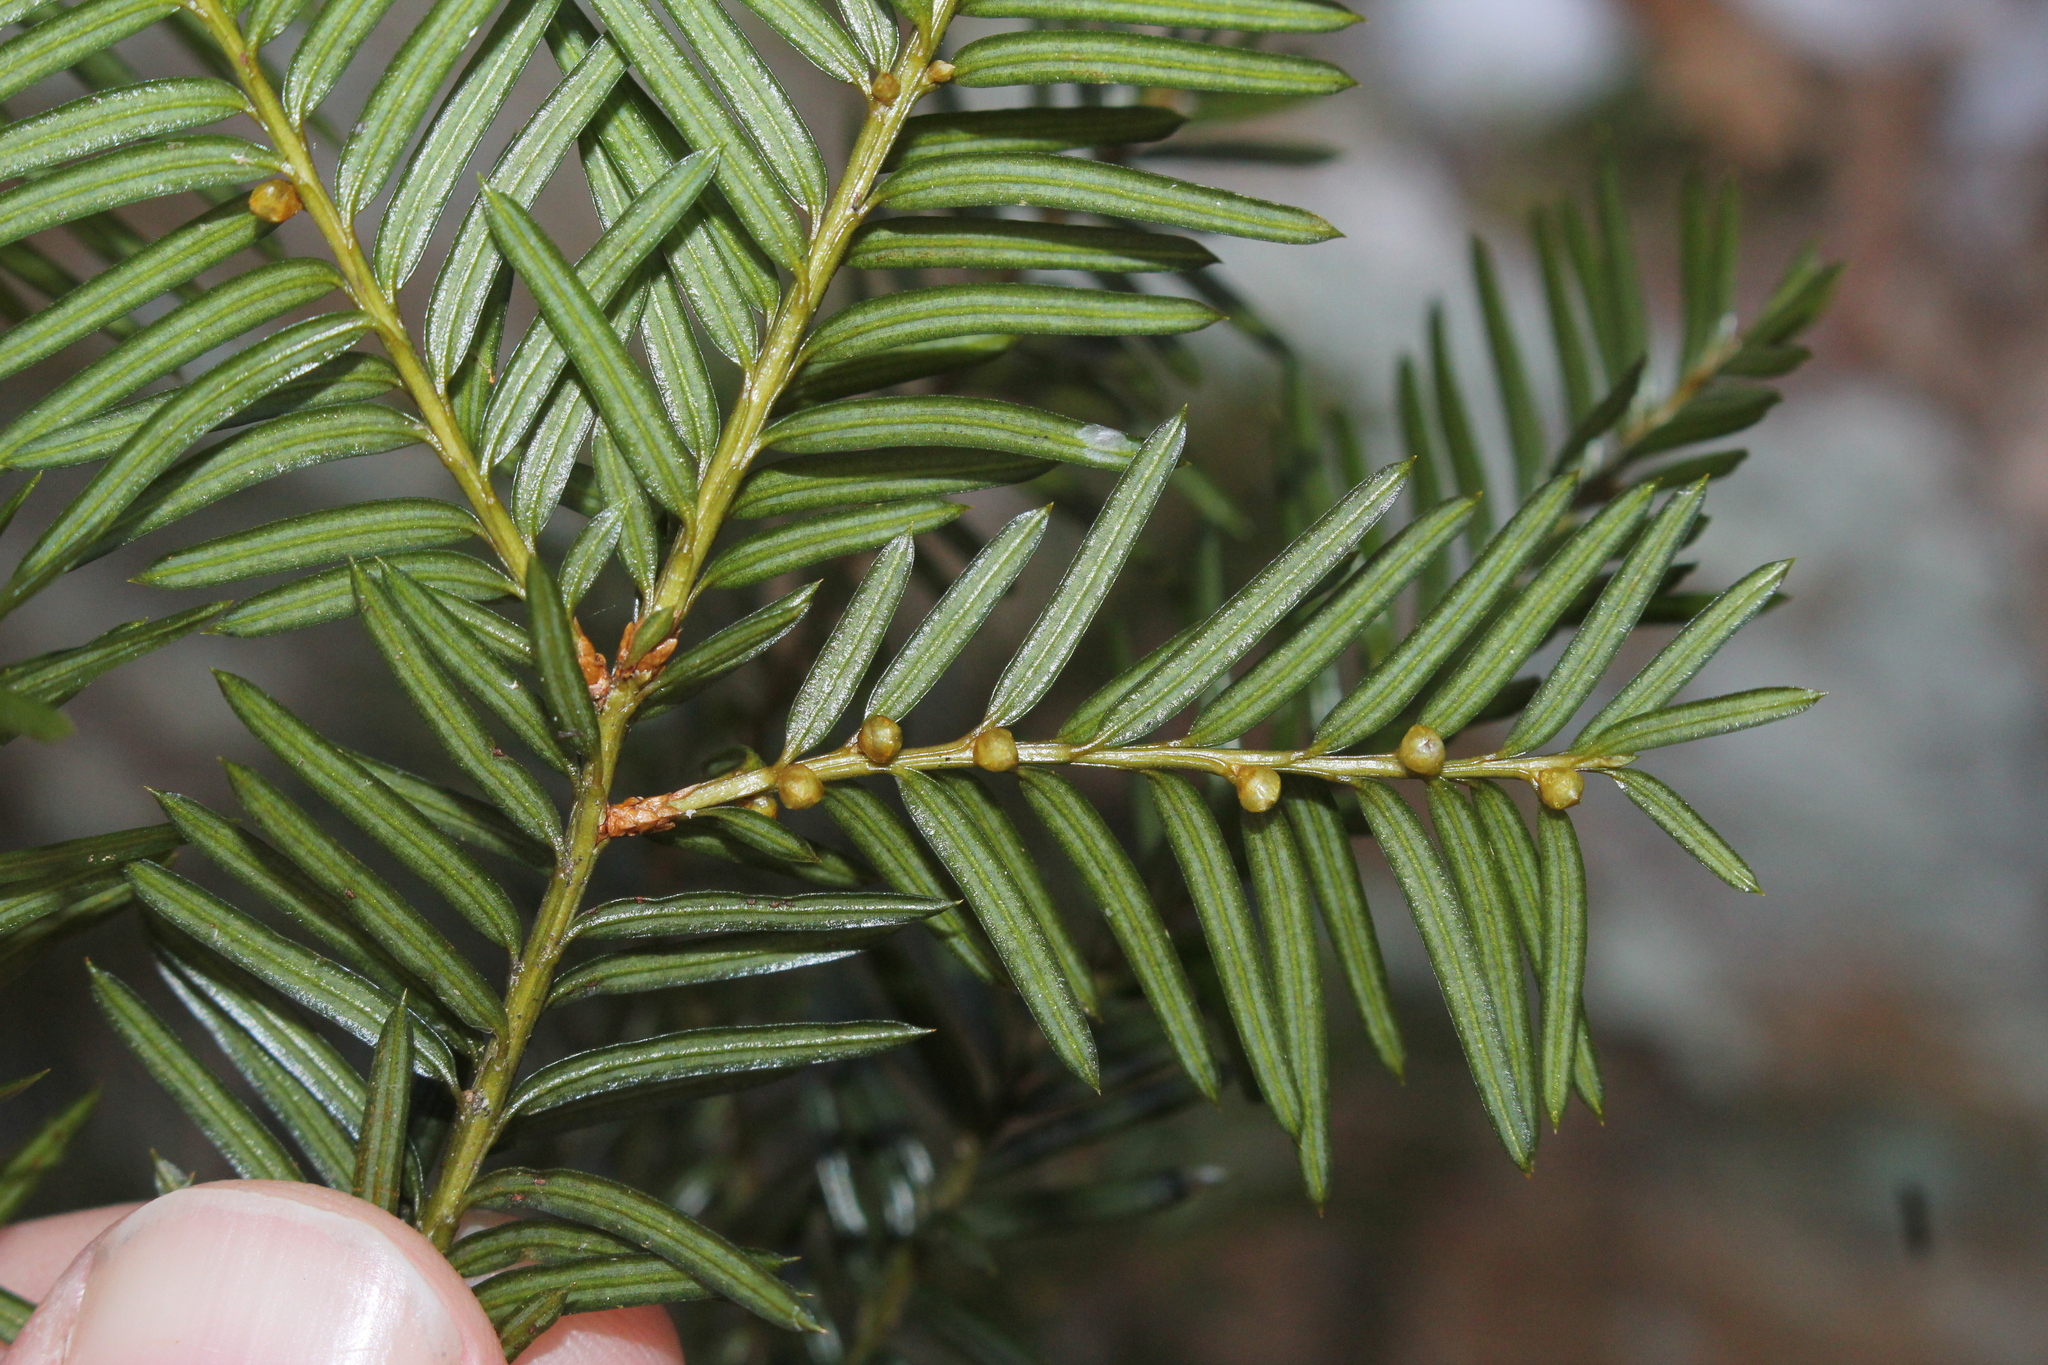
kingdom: Plantae
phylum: Tracheophyta
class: Pinopsida
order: Pinales
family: Taxaceae
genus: Taxus
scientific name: Taxus canadensis
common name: American yew
